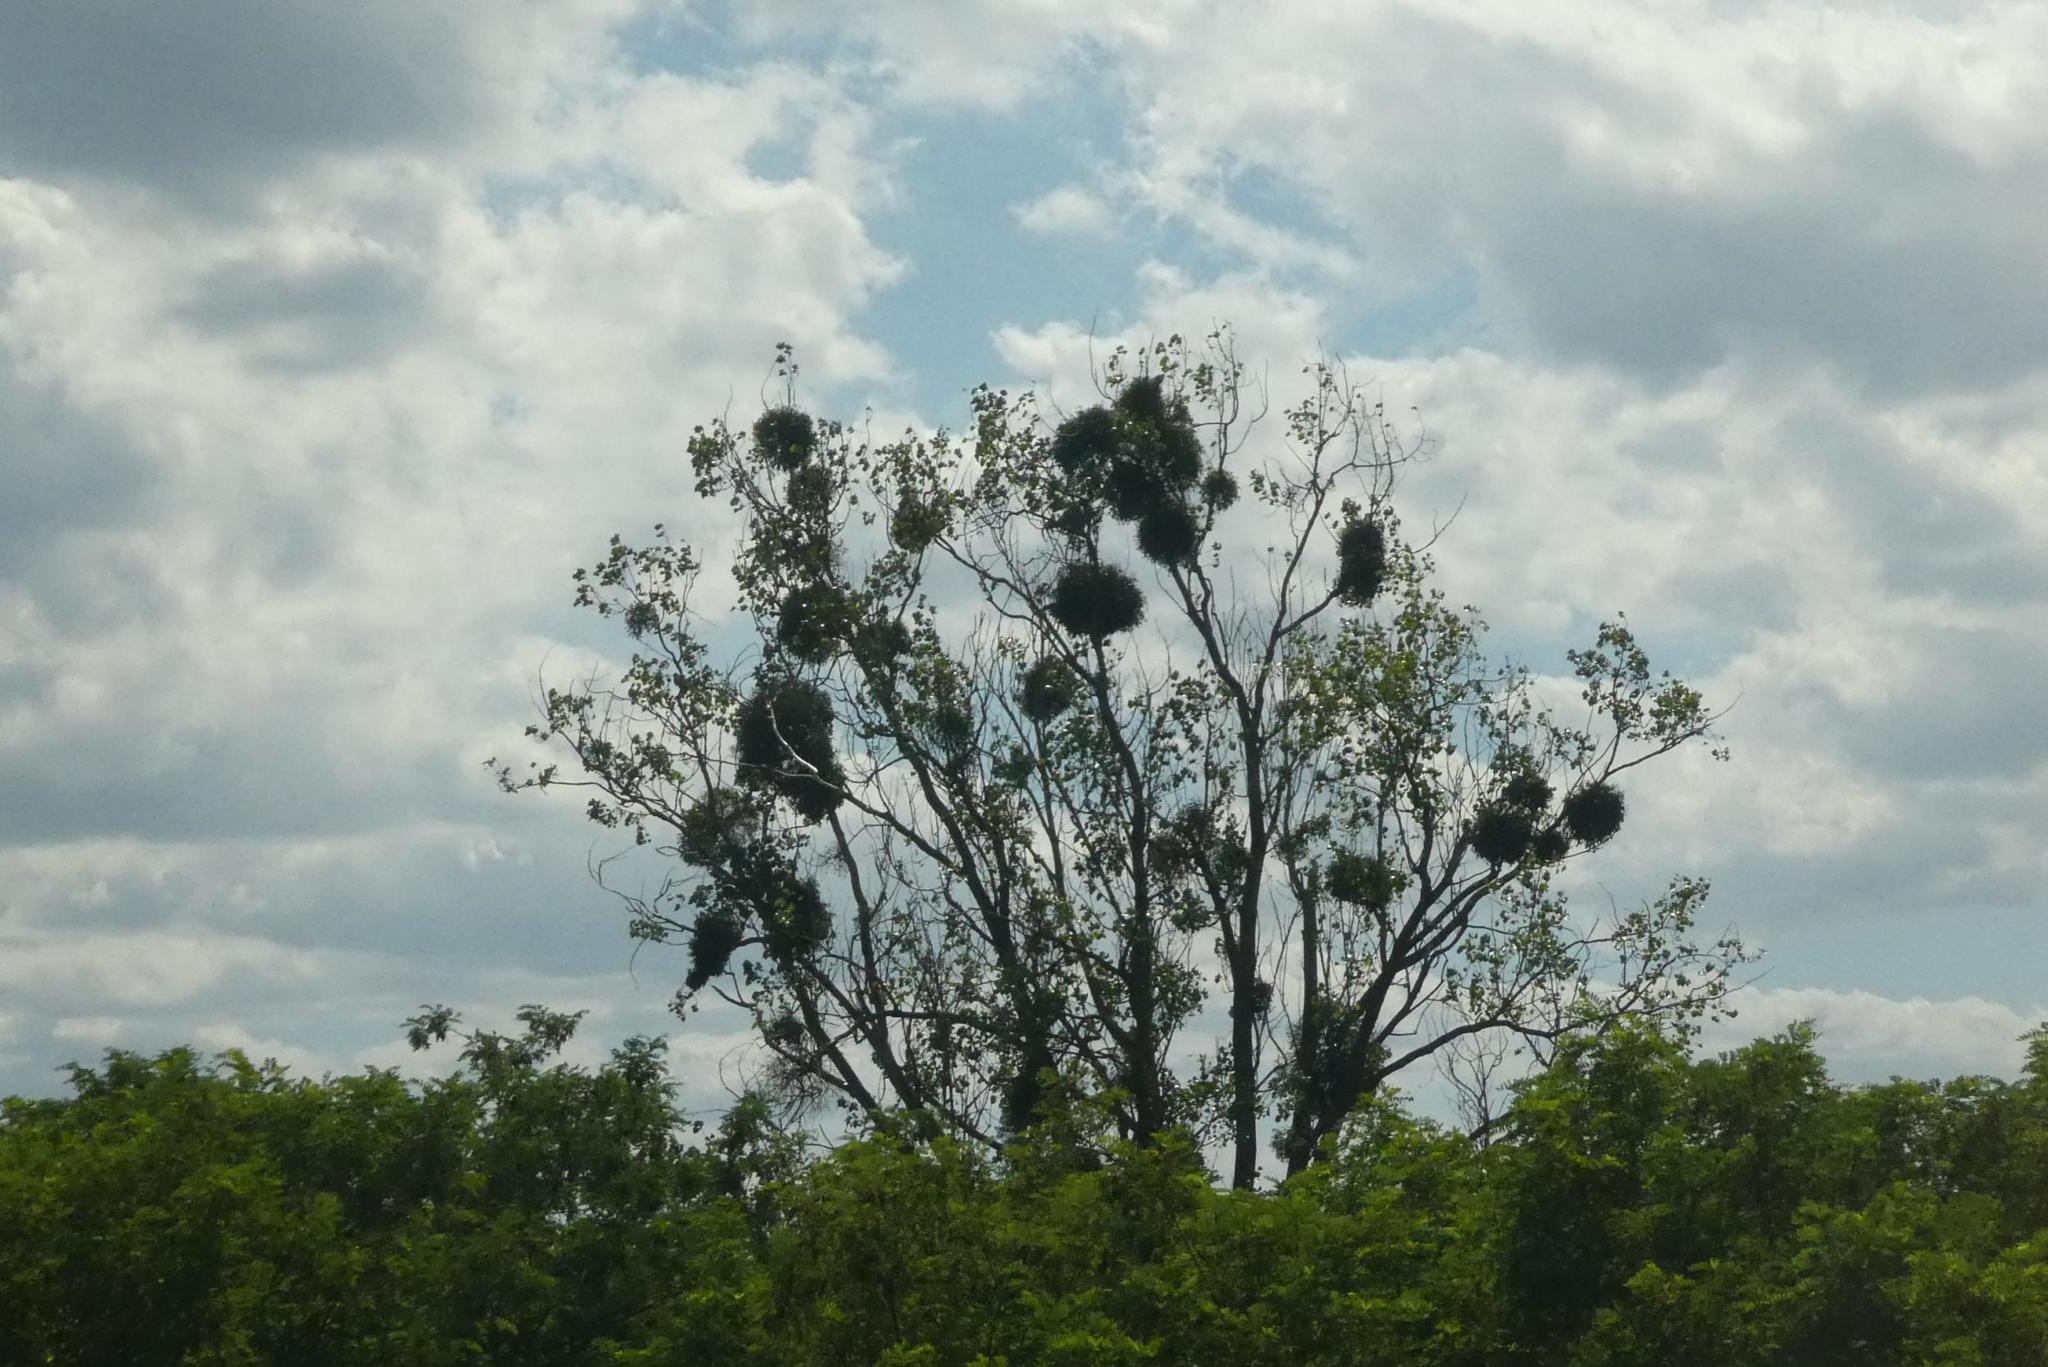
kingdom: Plantae
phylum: Tracheophyta
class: Magnoliopsida
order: Santalales
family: Viscaceae
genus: Viscum
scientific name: Viscum album
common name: Mistletoe
